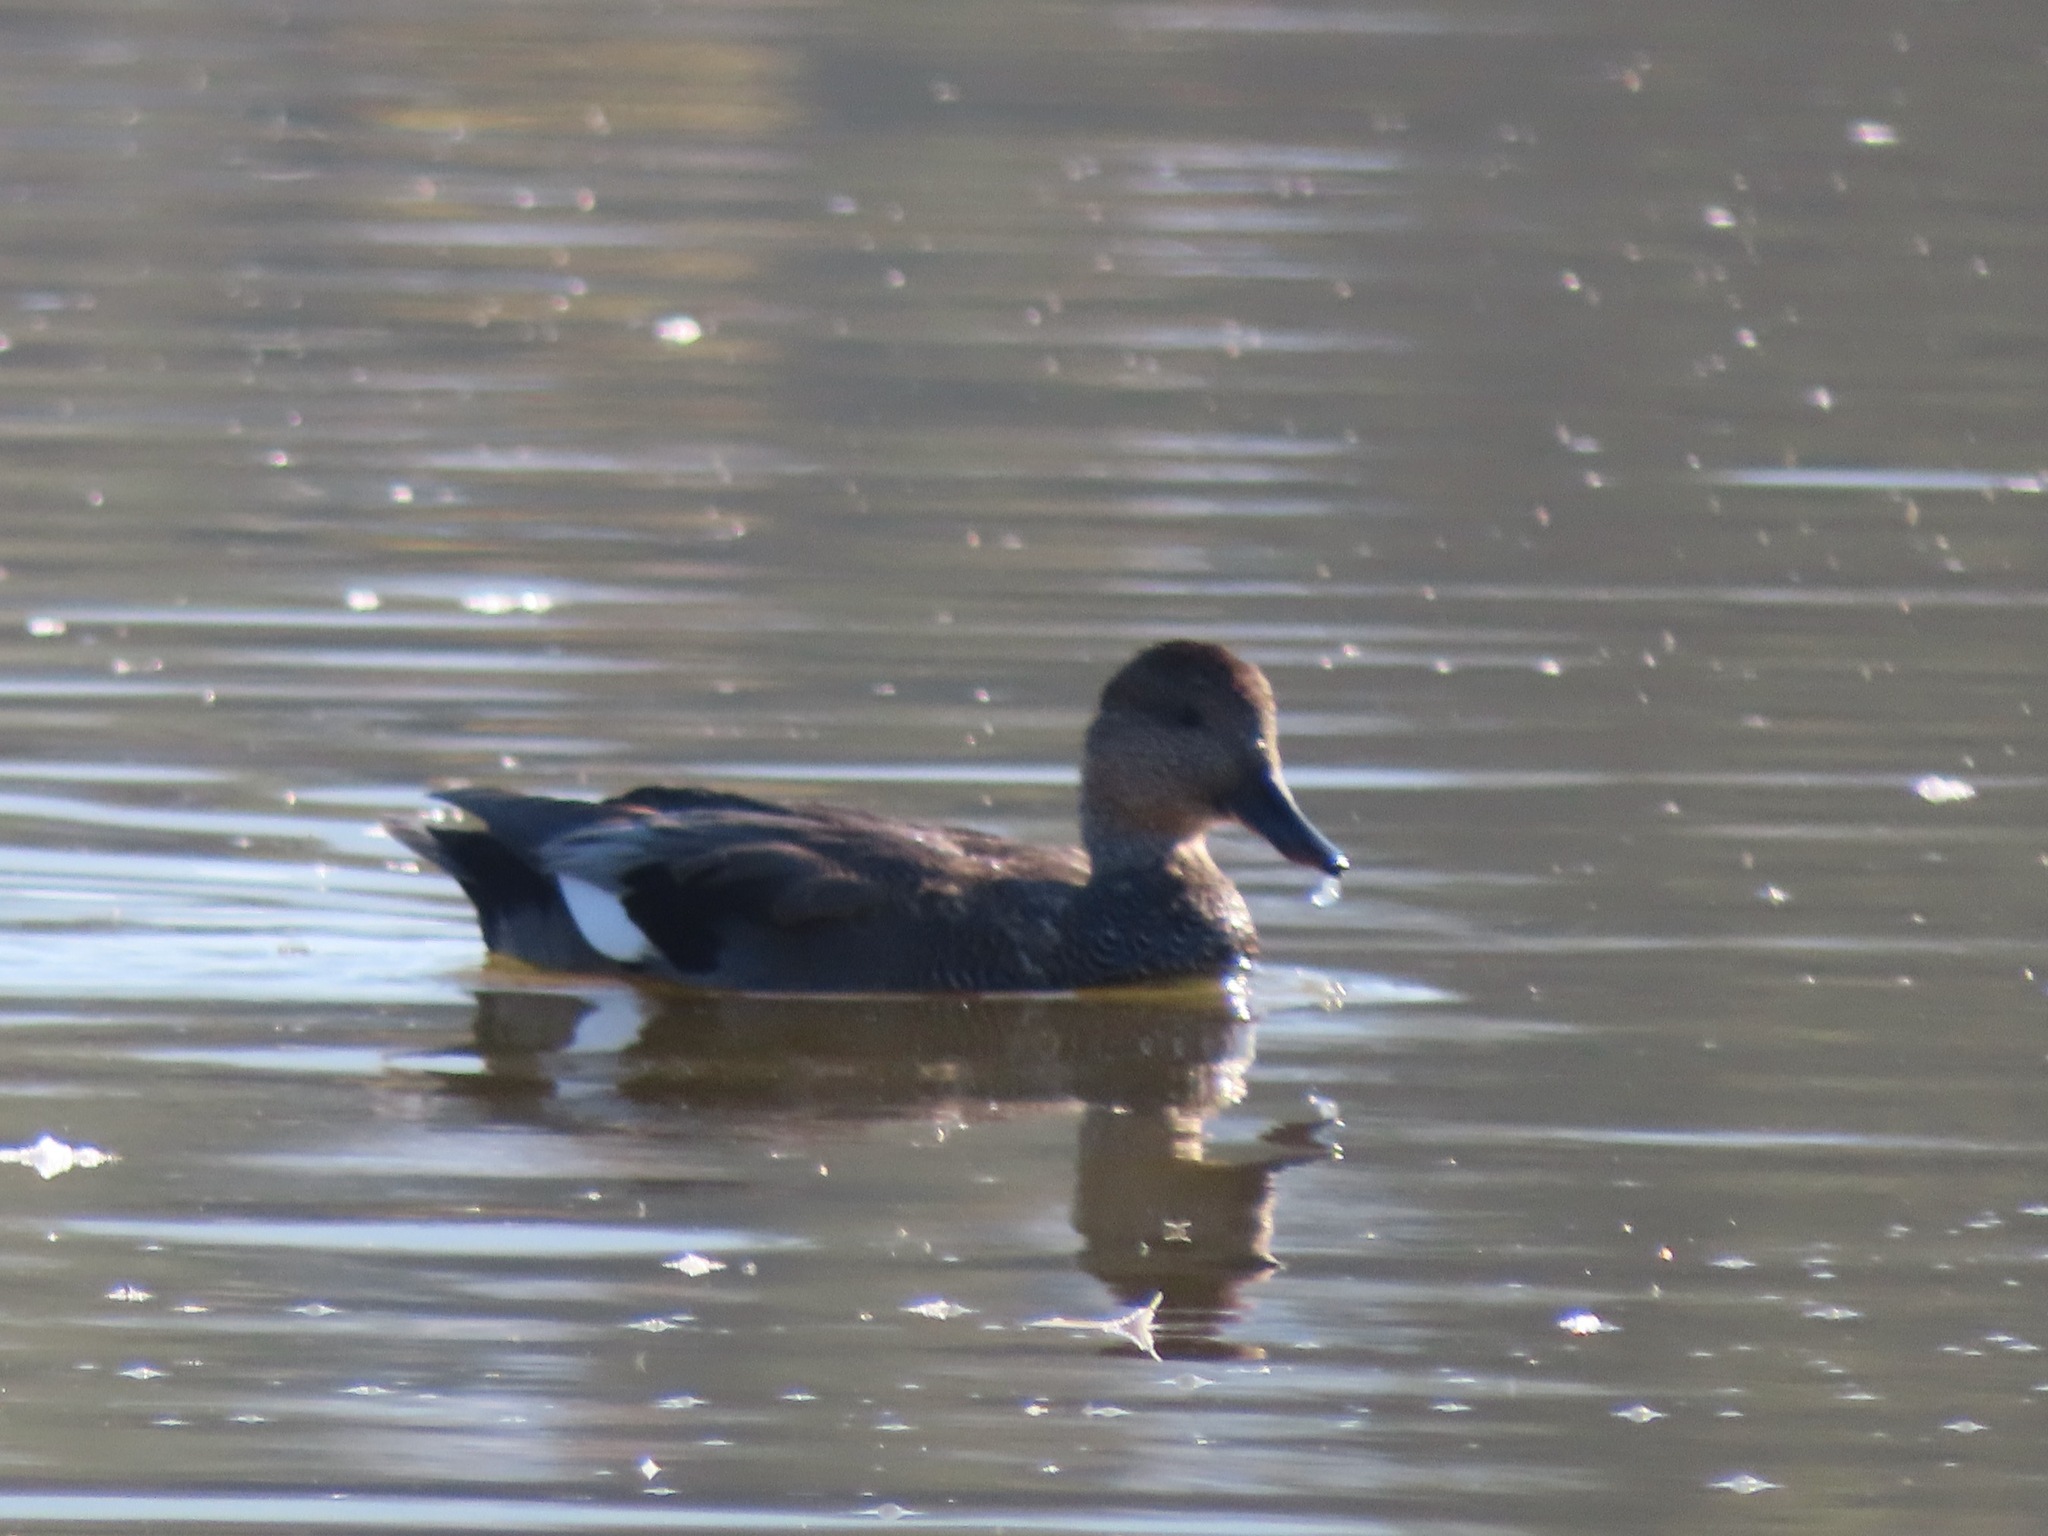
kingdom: Animalia
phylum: Chordata
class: Aves
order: Anseriformes
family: Anatidae
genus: Mareca
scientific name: Mareca strepera
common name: Gadwall
